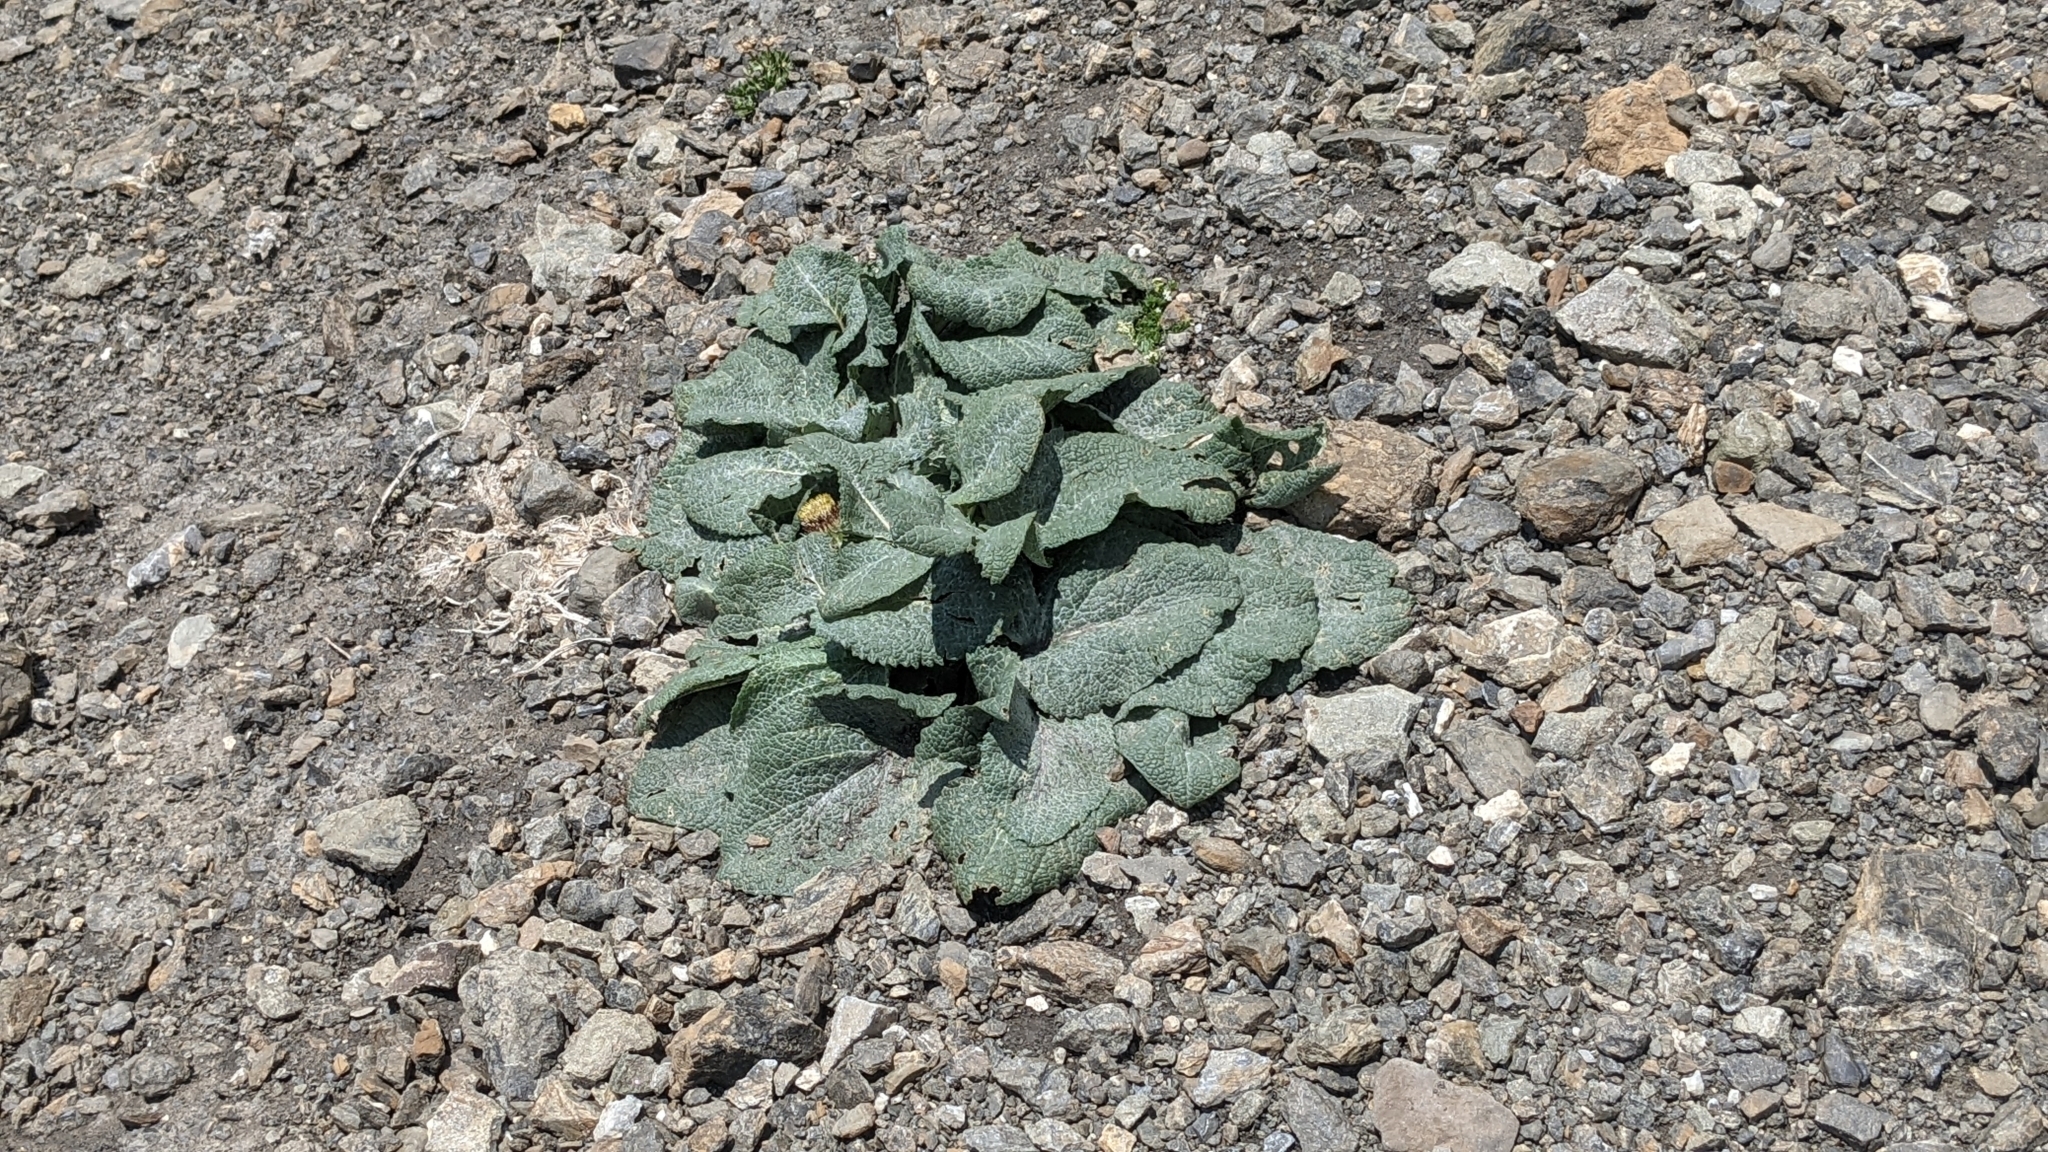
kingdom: Plantae
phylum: Tracheophyta
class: Magnoliopsida
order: Asterales
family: Asteraceae
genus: Berardia
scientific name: Berardia lanuginosa
